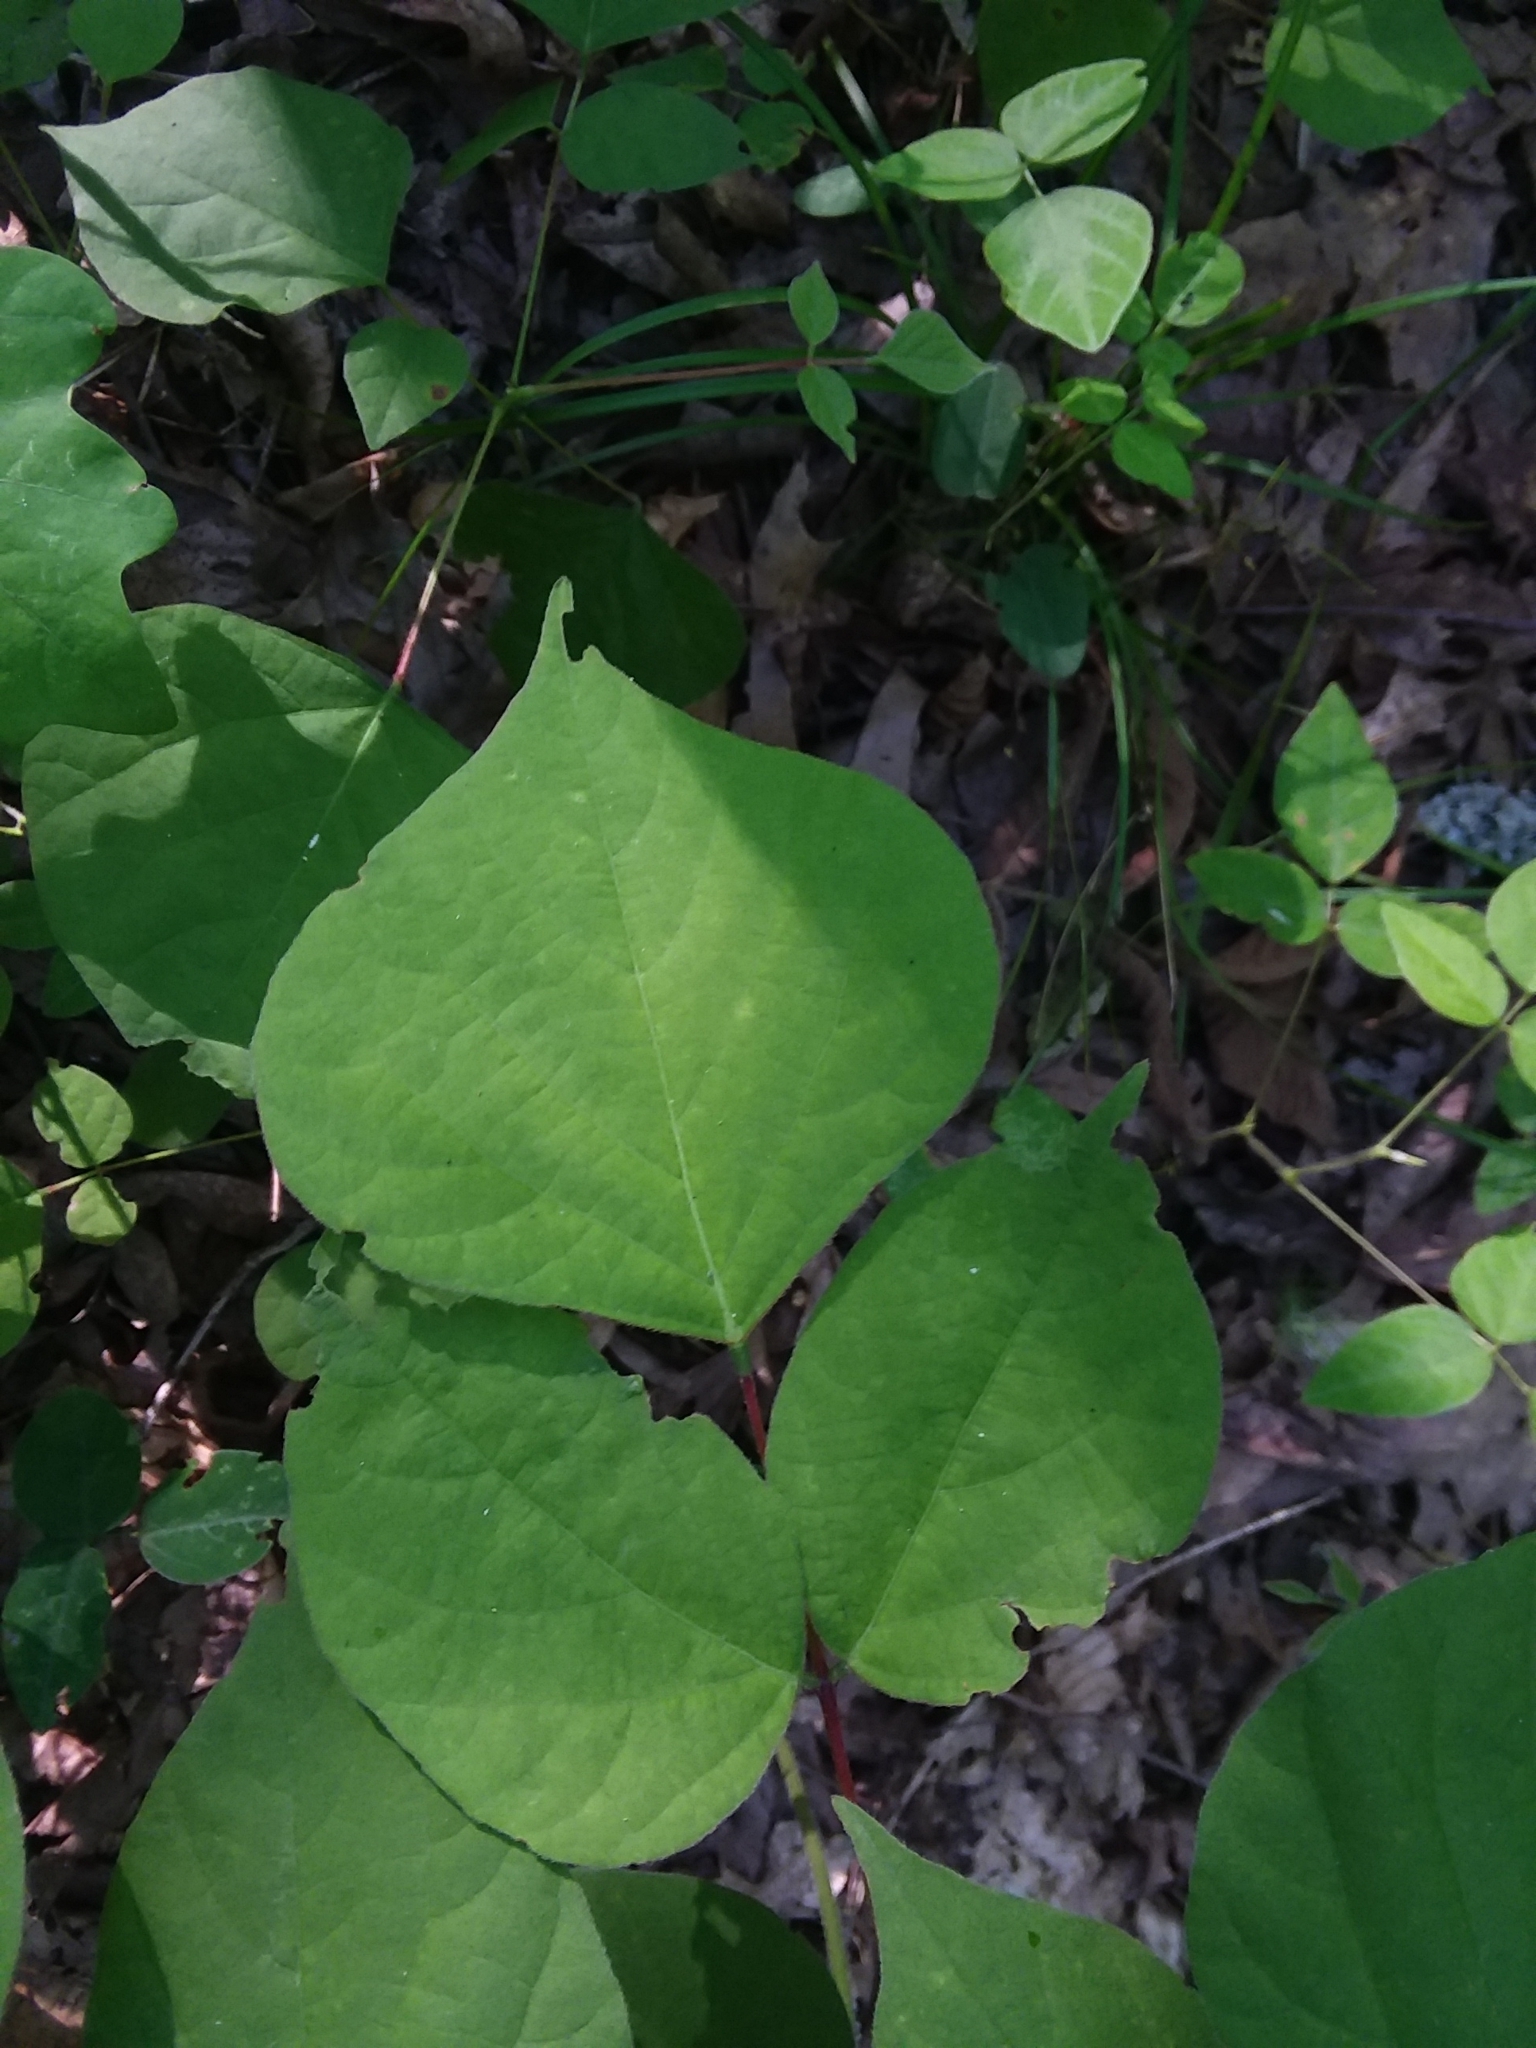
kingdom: Plantae
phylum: Tracheophyta
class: Magnoliopsida
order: Fabales
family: Fabaceae
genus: Hylodesmum
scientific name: Hylodesmum glutinosum
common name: Clustered-leaved tick-trefoil
